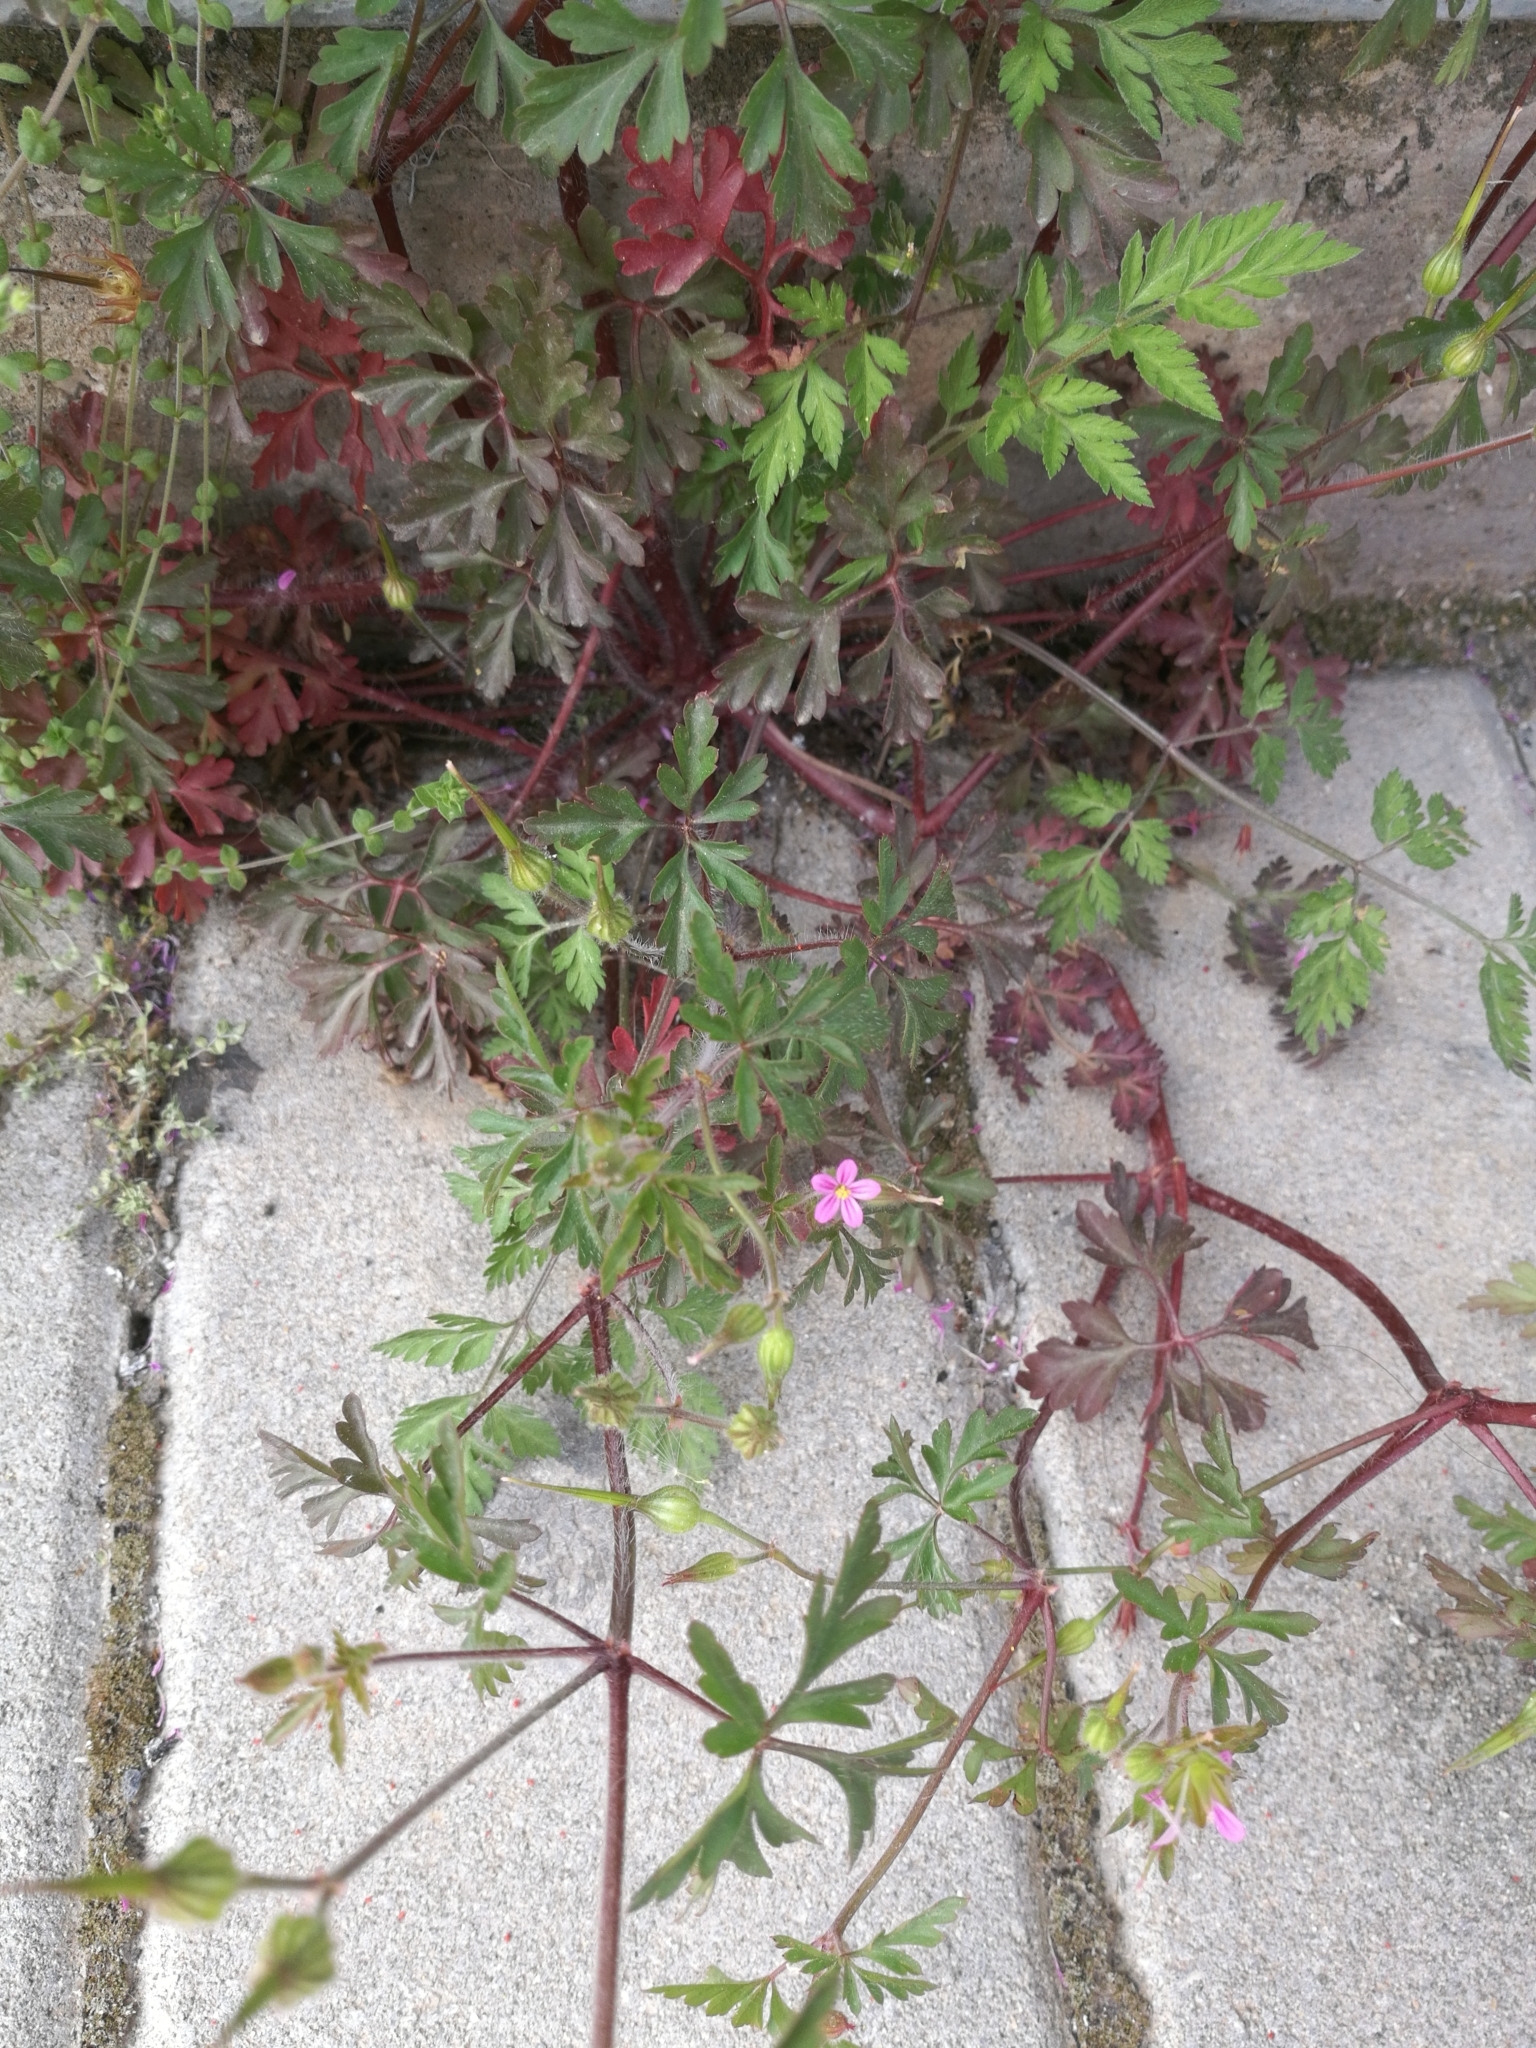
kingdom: Plantae
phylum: Tracheophyta
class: Magnoliopsida
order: Geraniales
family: Geraniaceae
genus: Geranium
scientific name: Geranium purpureum
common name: Little-robin
